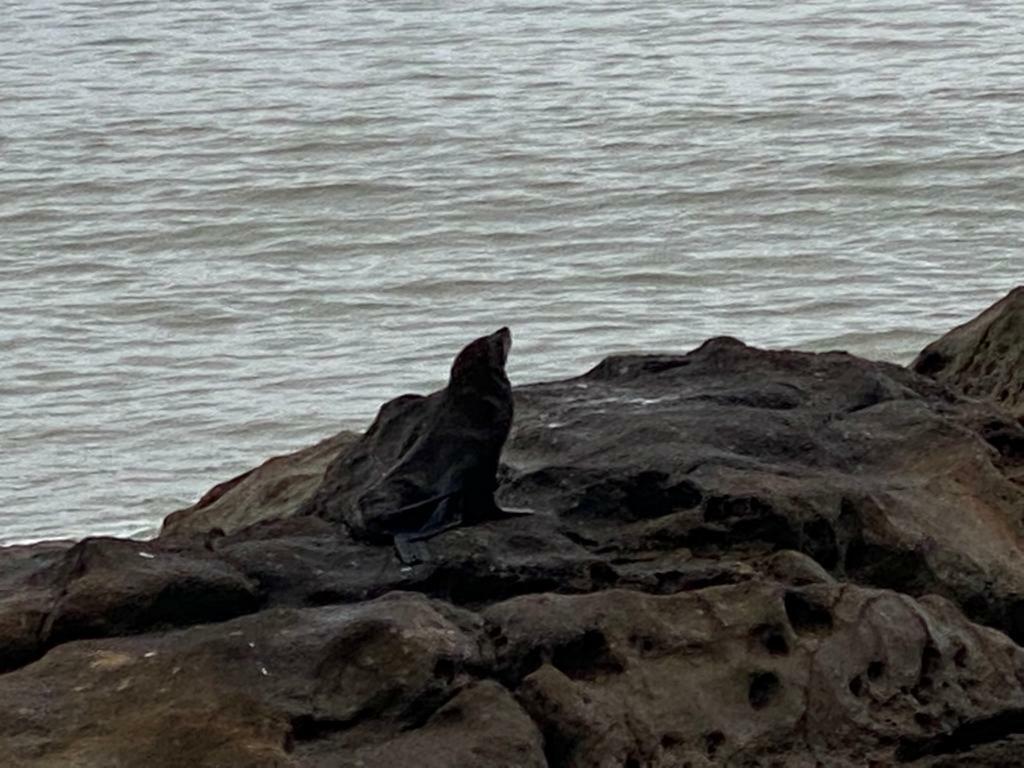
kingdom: Animalia
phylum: Chordata
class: Mammalia
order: Carnivora
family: Otariidae
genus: Arctocephalus
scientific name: Arctocephalus forsteri
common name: New zealand fur seal
